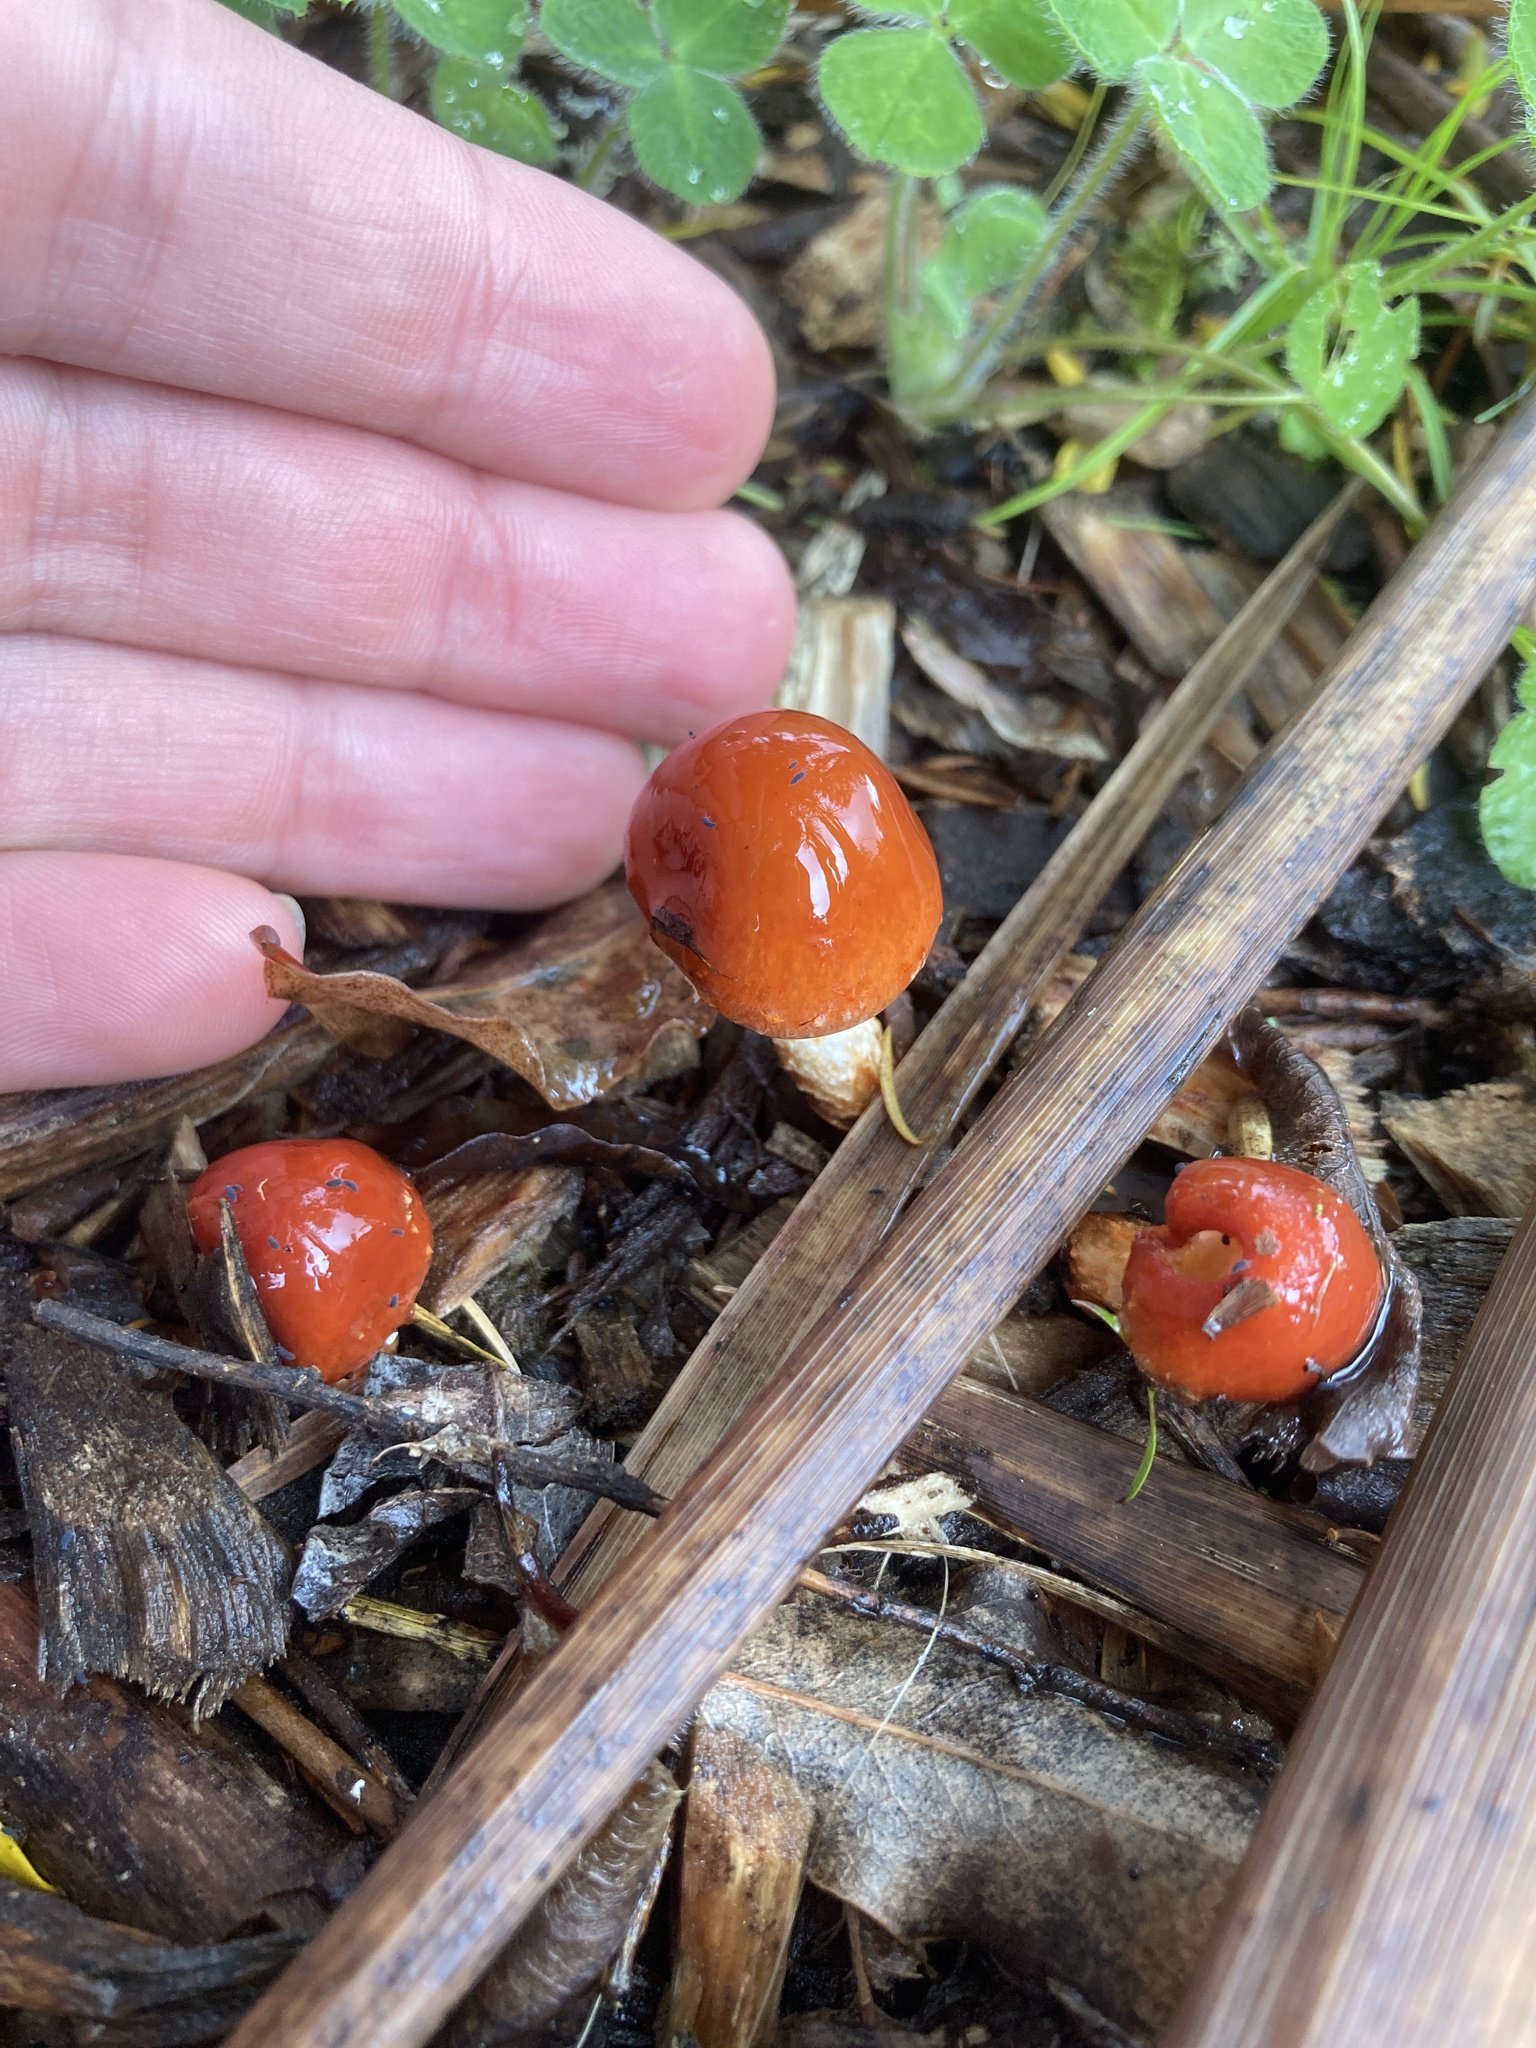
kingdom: Fungi
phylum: Basidiomycota
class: Agaricomycetes
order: Agaricales
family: Strophariaceae
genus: Leratiomyces
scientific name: Leratiomyces ceres
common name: Redlead roundhead
